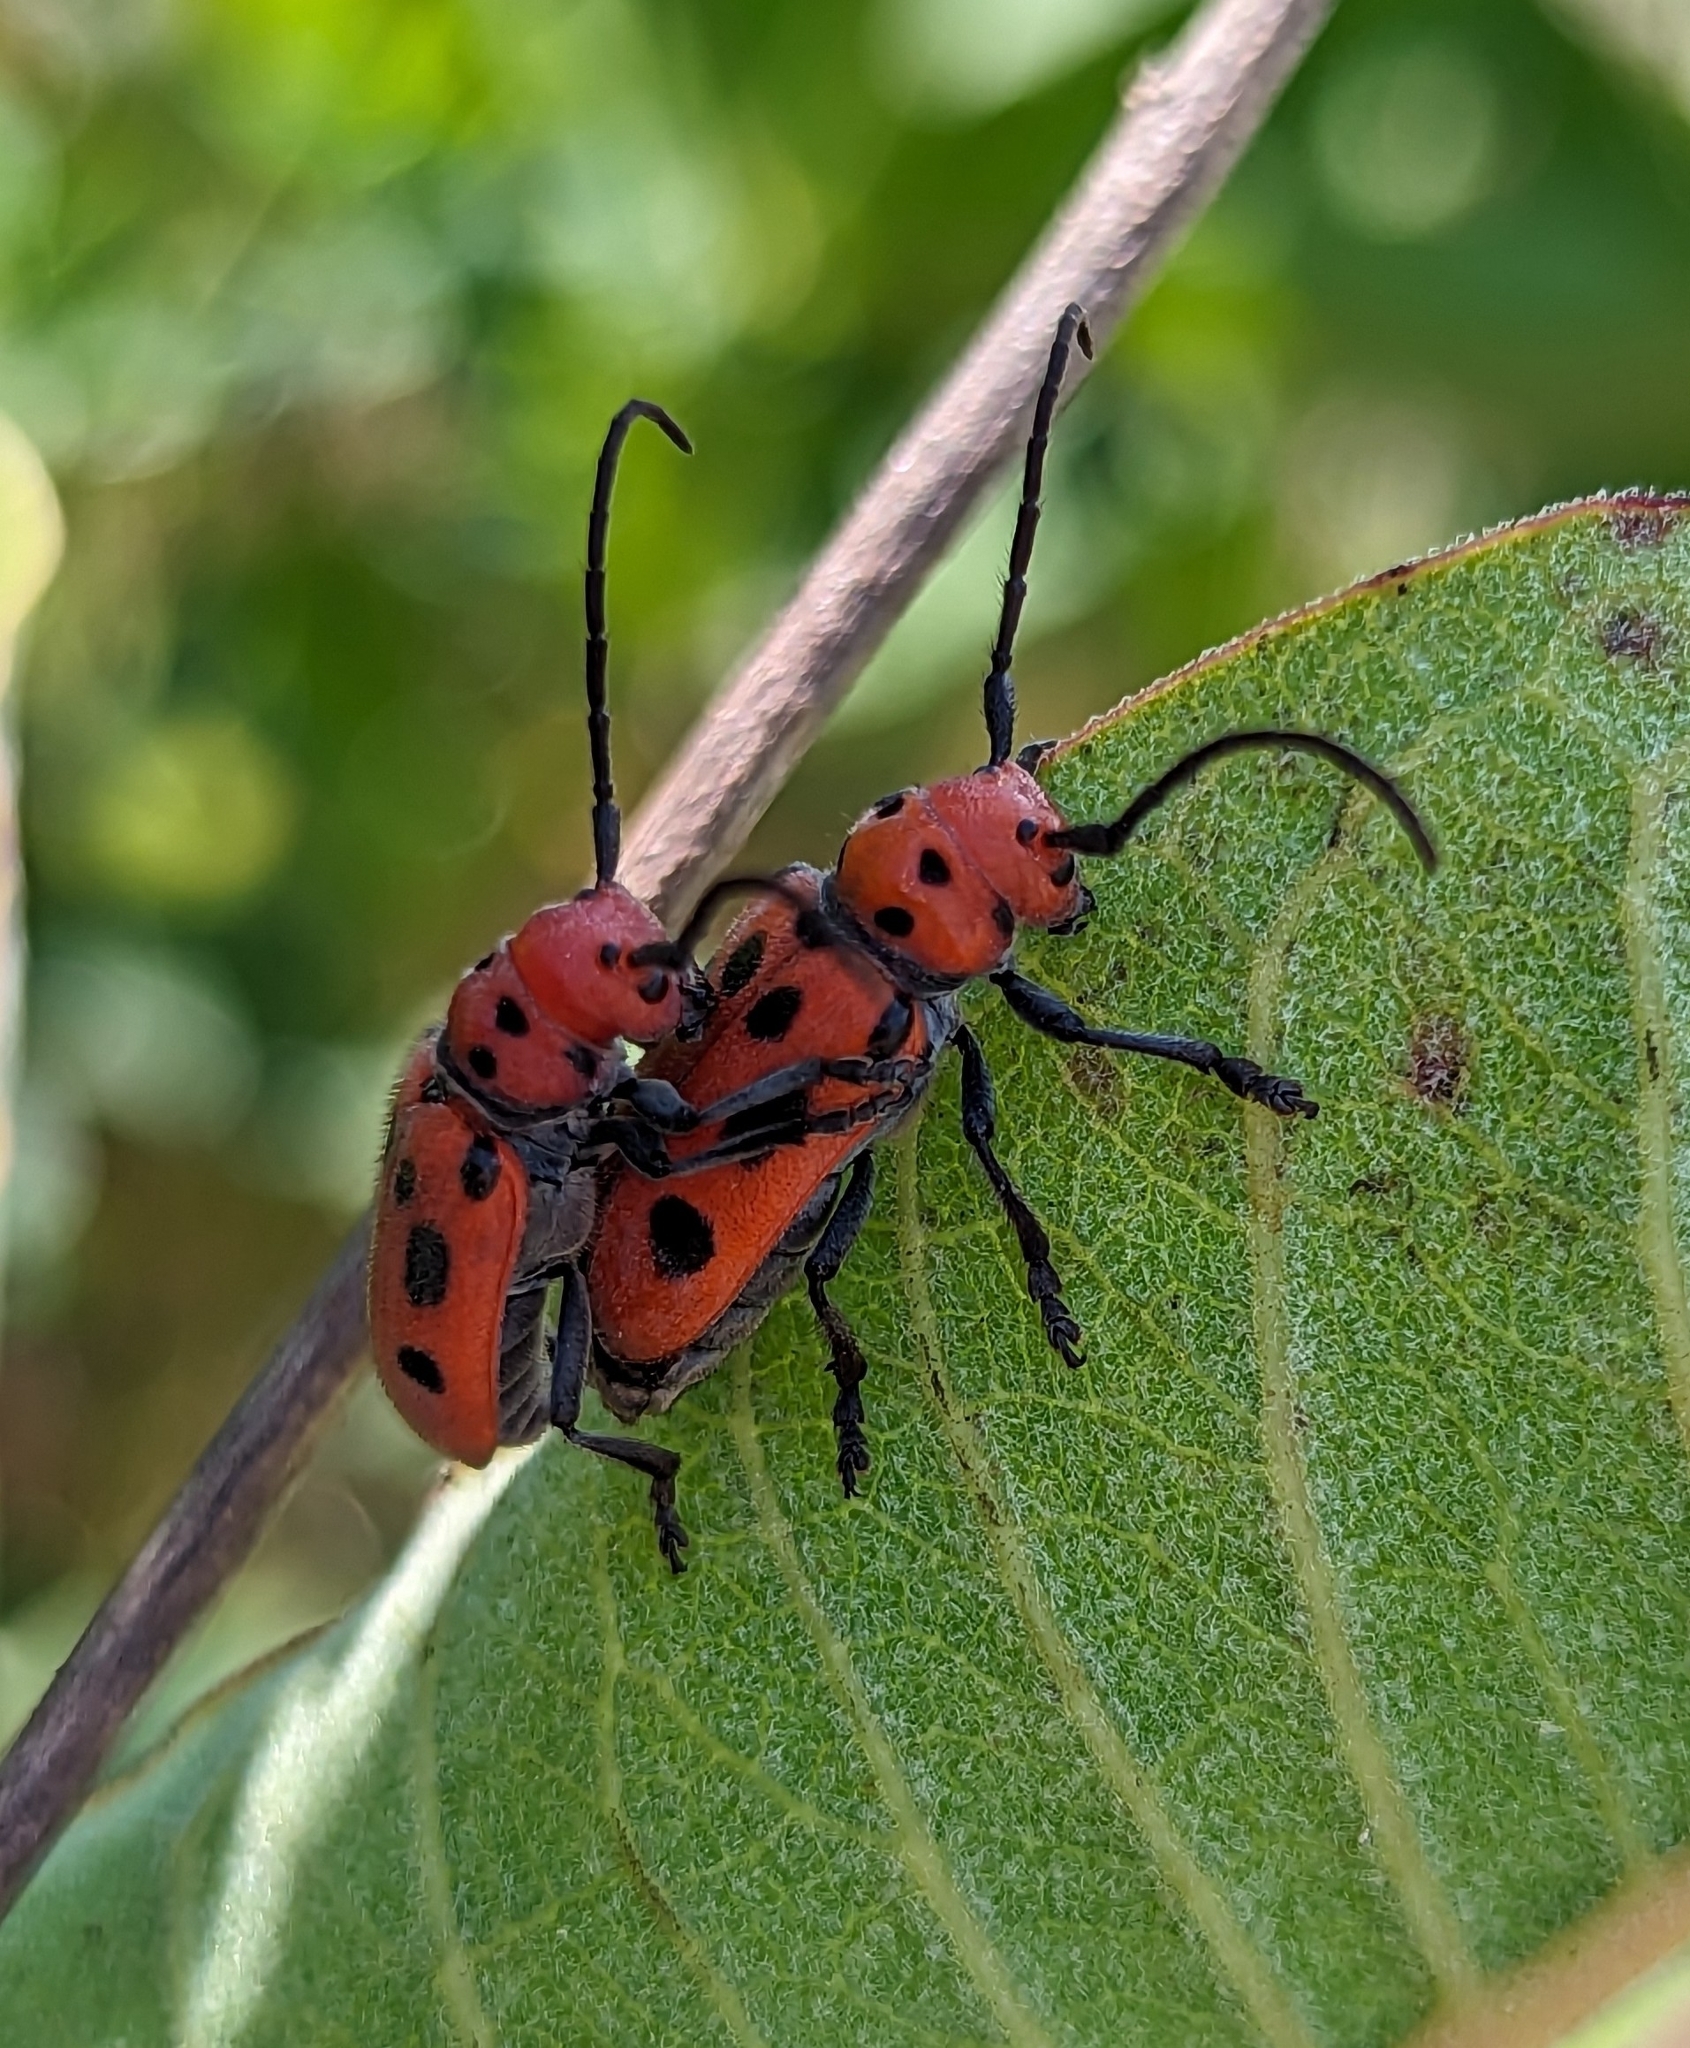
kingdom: Animalia
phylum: Arthropoda
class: Insecta
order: Coleoptera
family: Cerambycidae
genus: Tetraopes
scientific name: Tetraopes tetrophthalmus
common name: Red milkweed beetle
